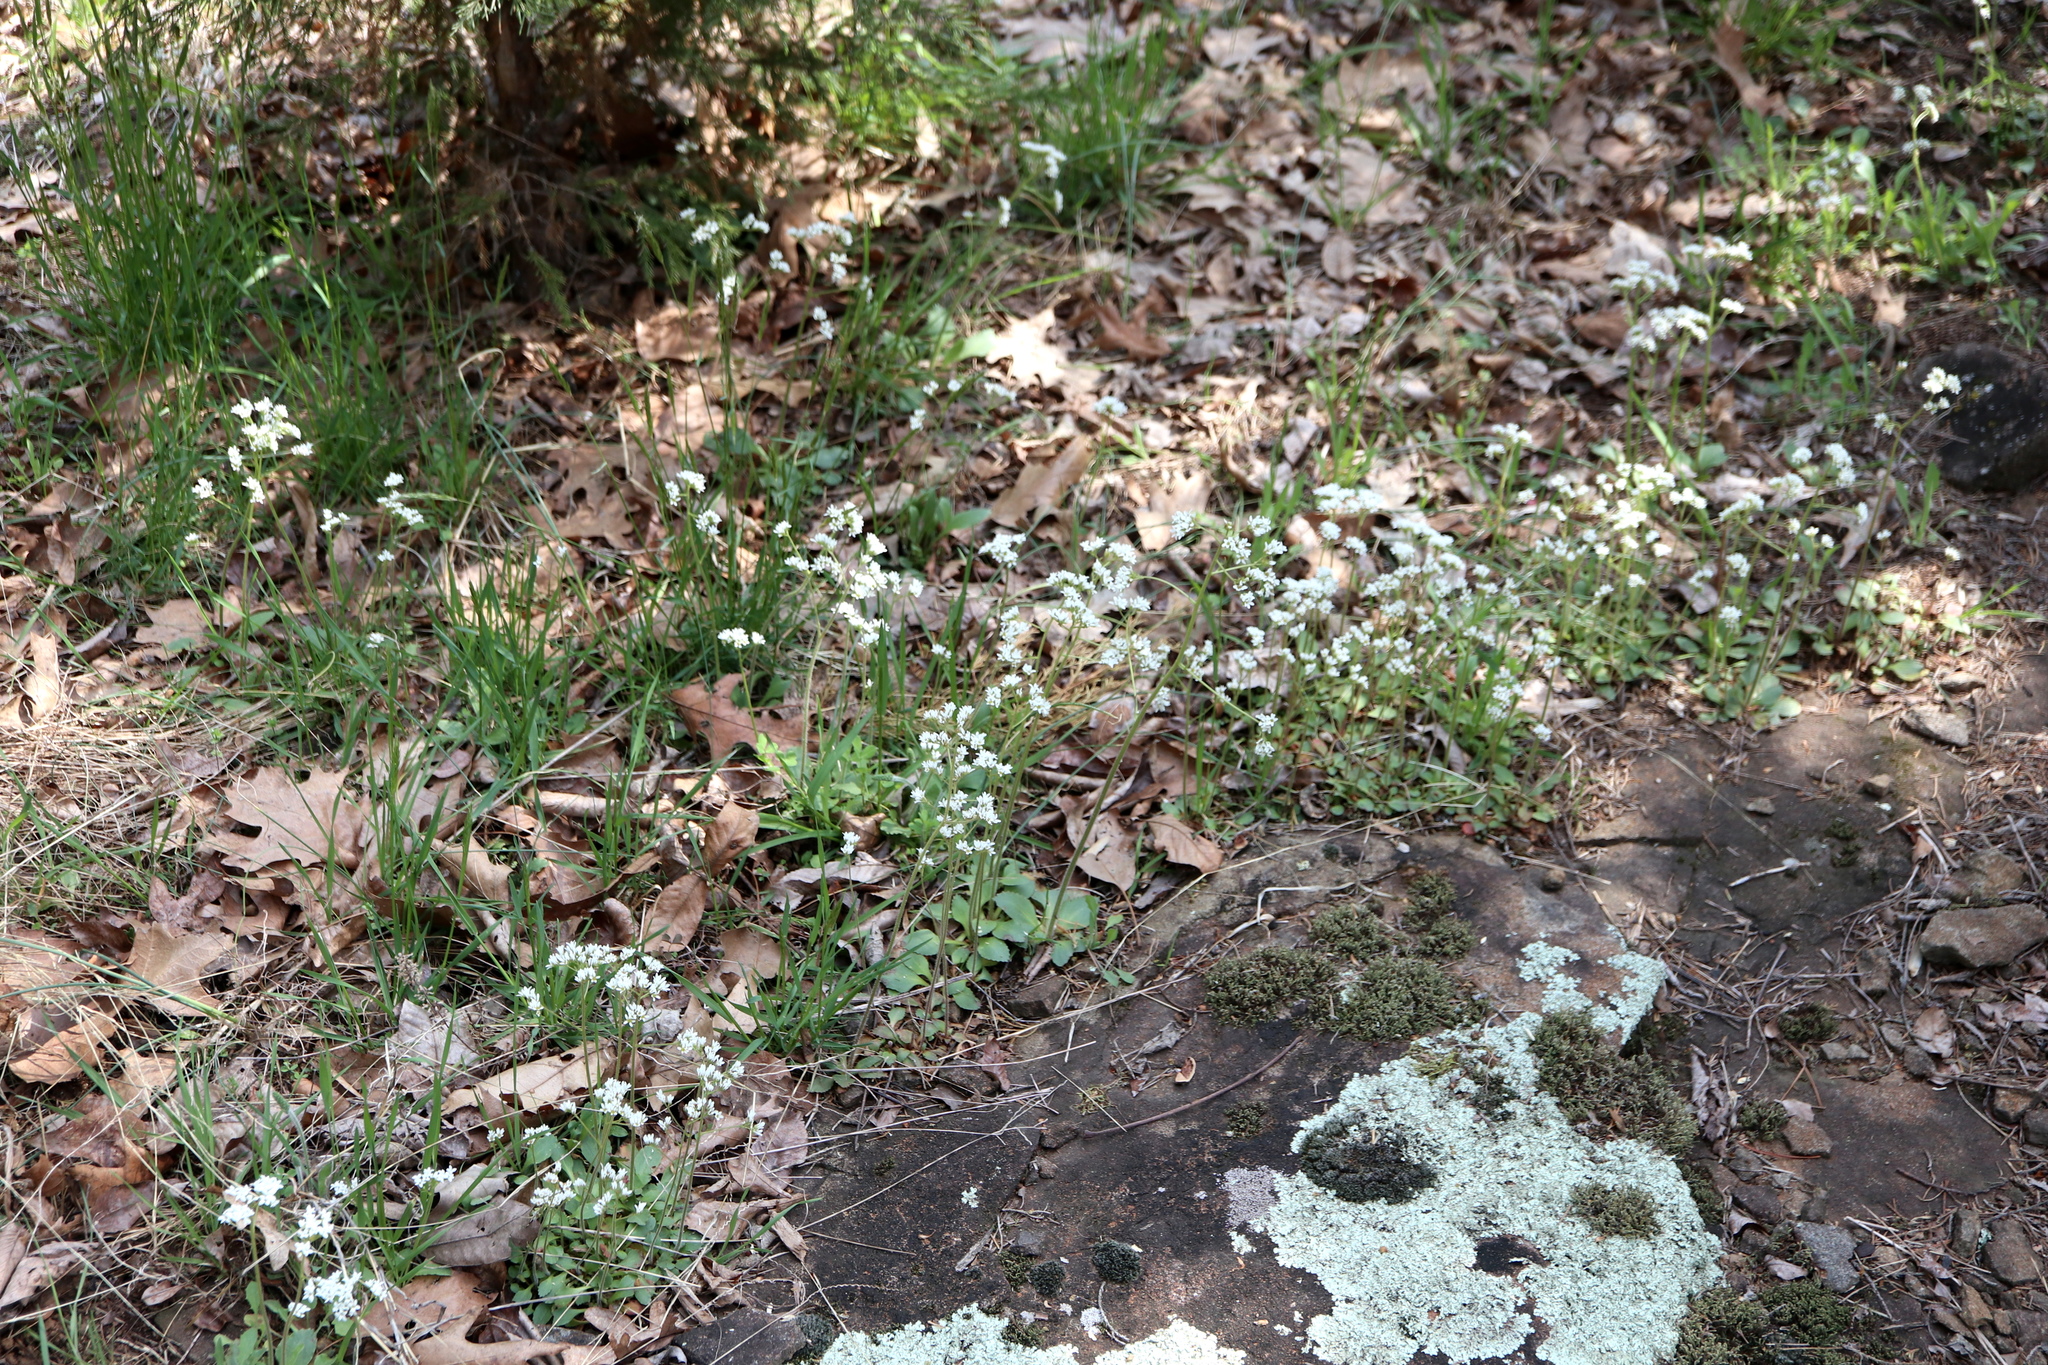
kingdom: Plantae
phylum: Tracheophyta
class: Magnoliopsida
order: Saxifragales
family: Saxifragaceae
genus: Micranthes
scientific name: Micranthes virginiensis
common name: Early saxifrage
